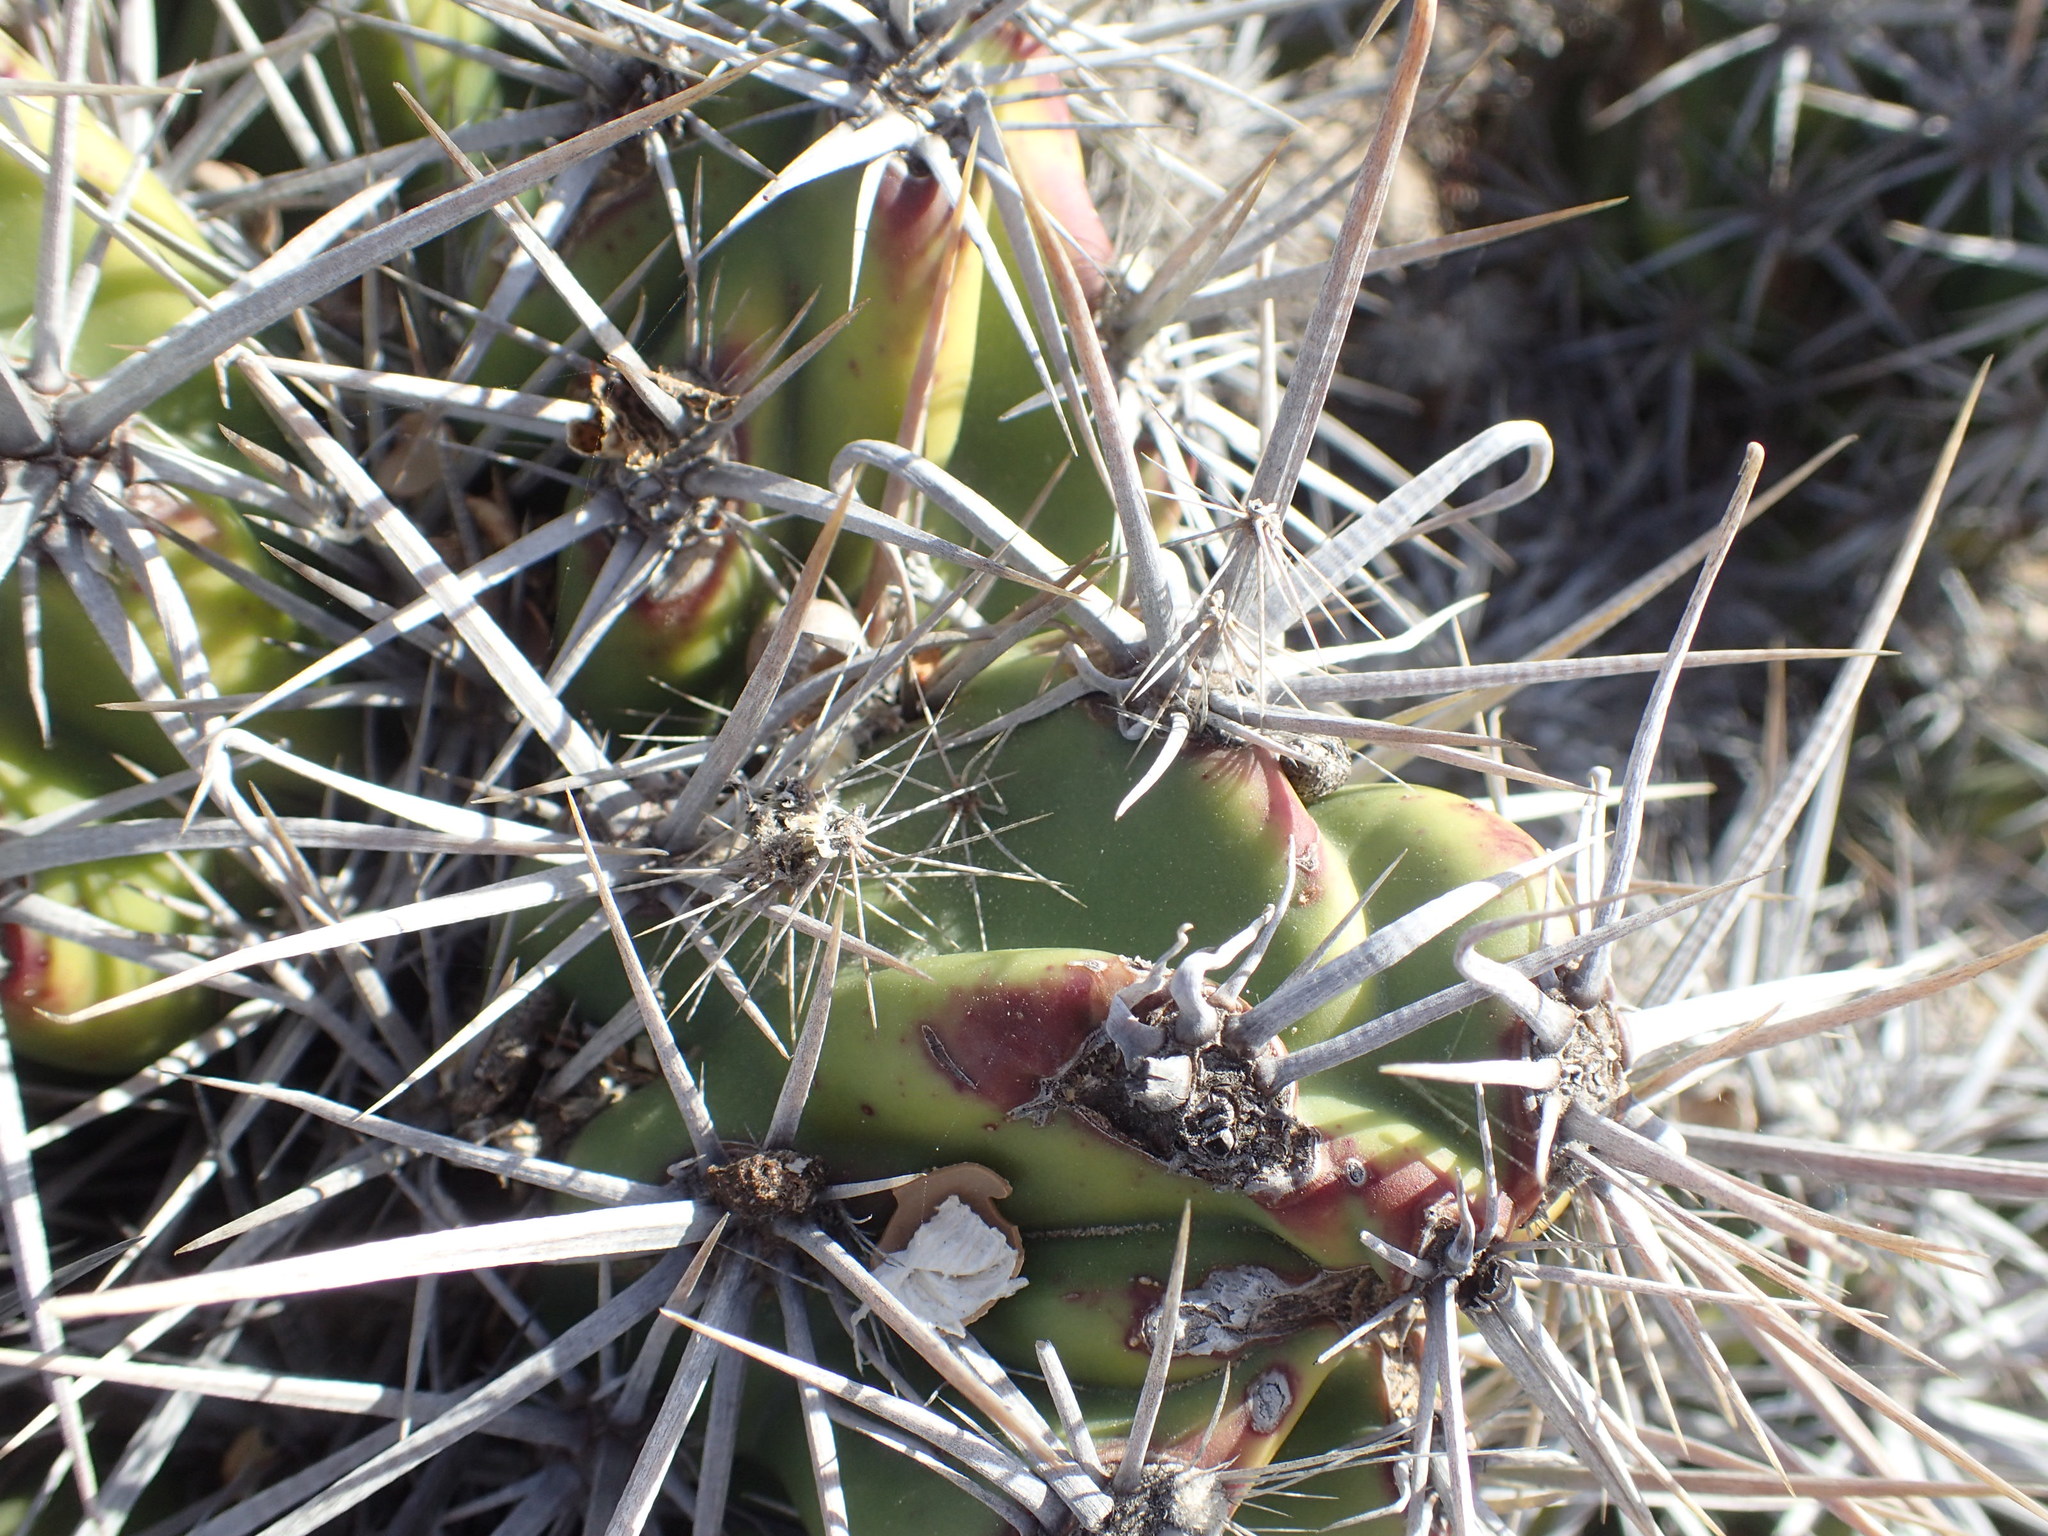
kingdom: Plantae
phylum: Tracheophyta
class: Magnoliopsida
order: Caryophyllales
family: Cactaceae
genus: Grusonia
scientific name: Grusonia invicta
